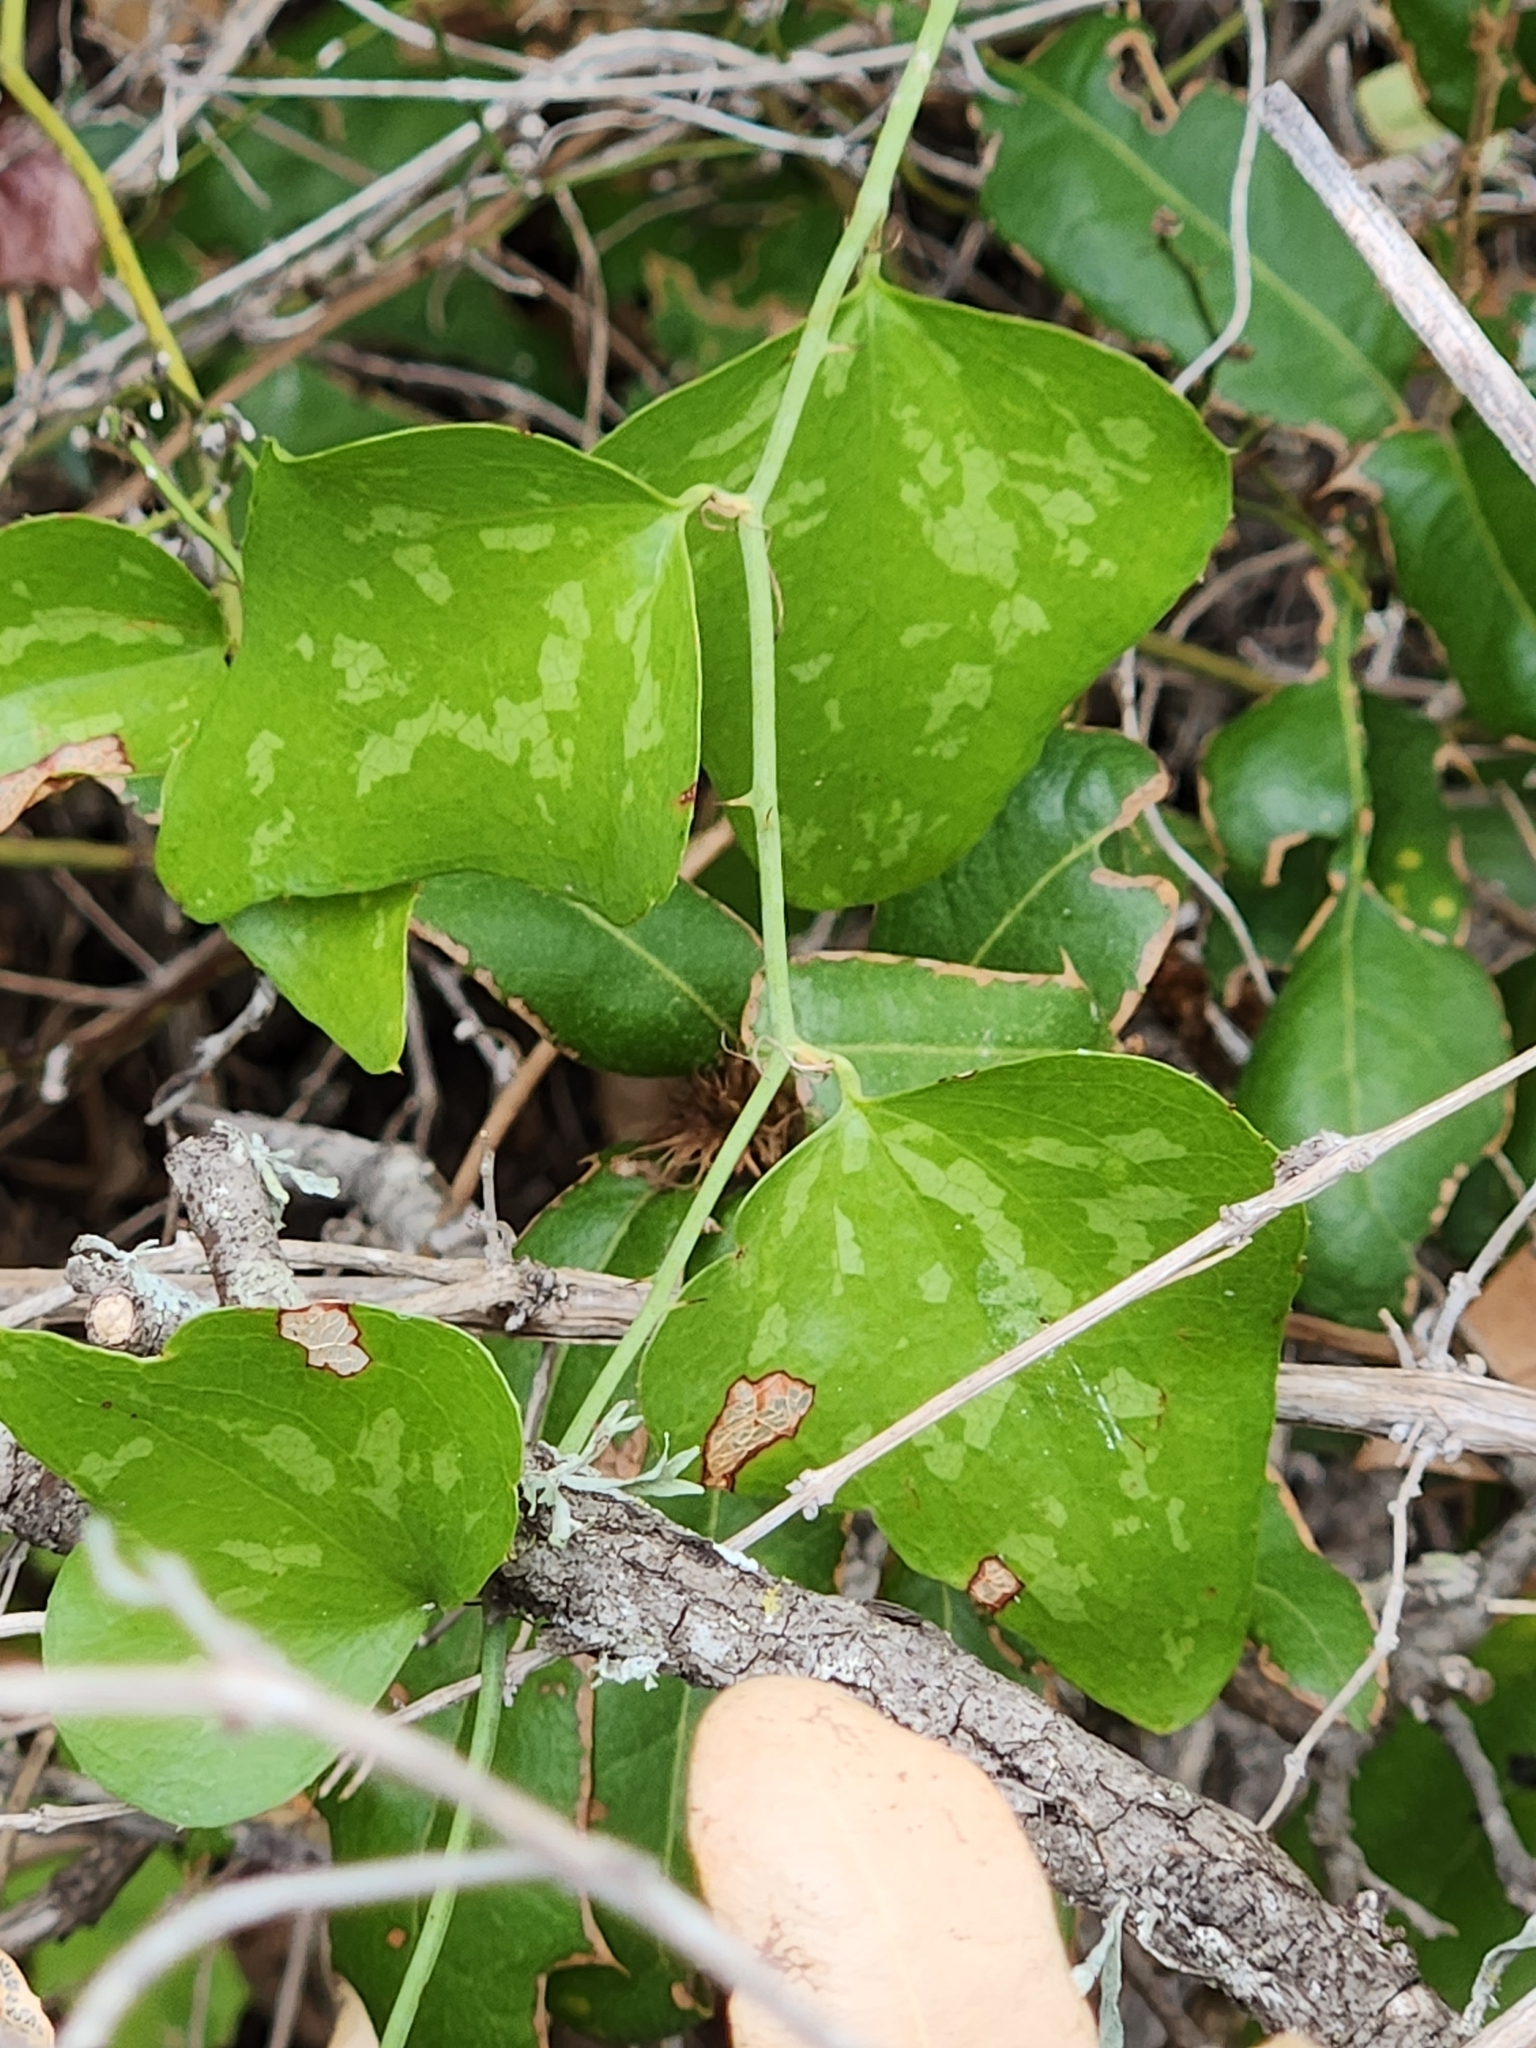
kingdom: Plantae
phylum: Tracheophyta
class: Liliopsida
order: Liliales
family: Smilacaceae
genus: Smilax
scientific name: Smilax bona-nox
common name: Catbrier
